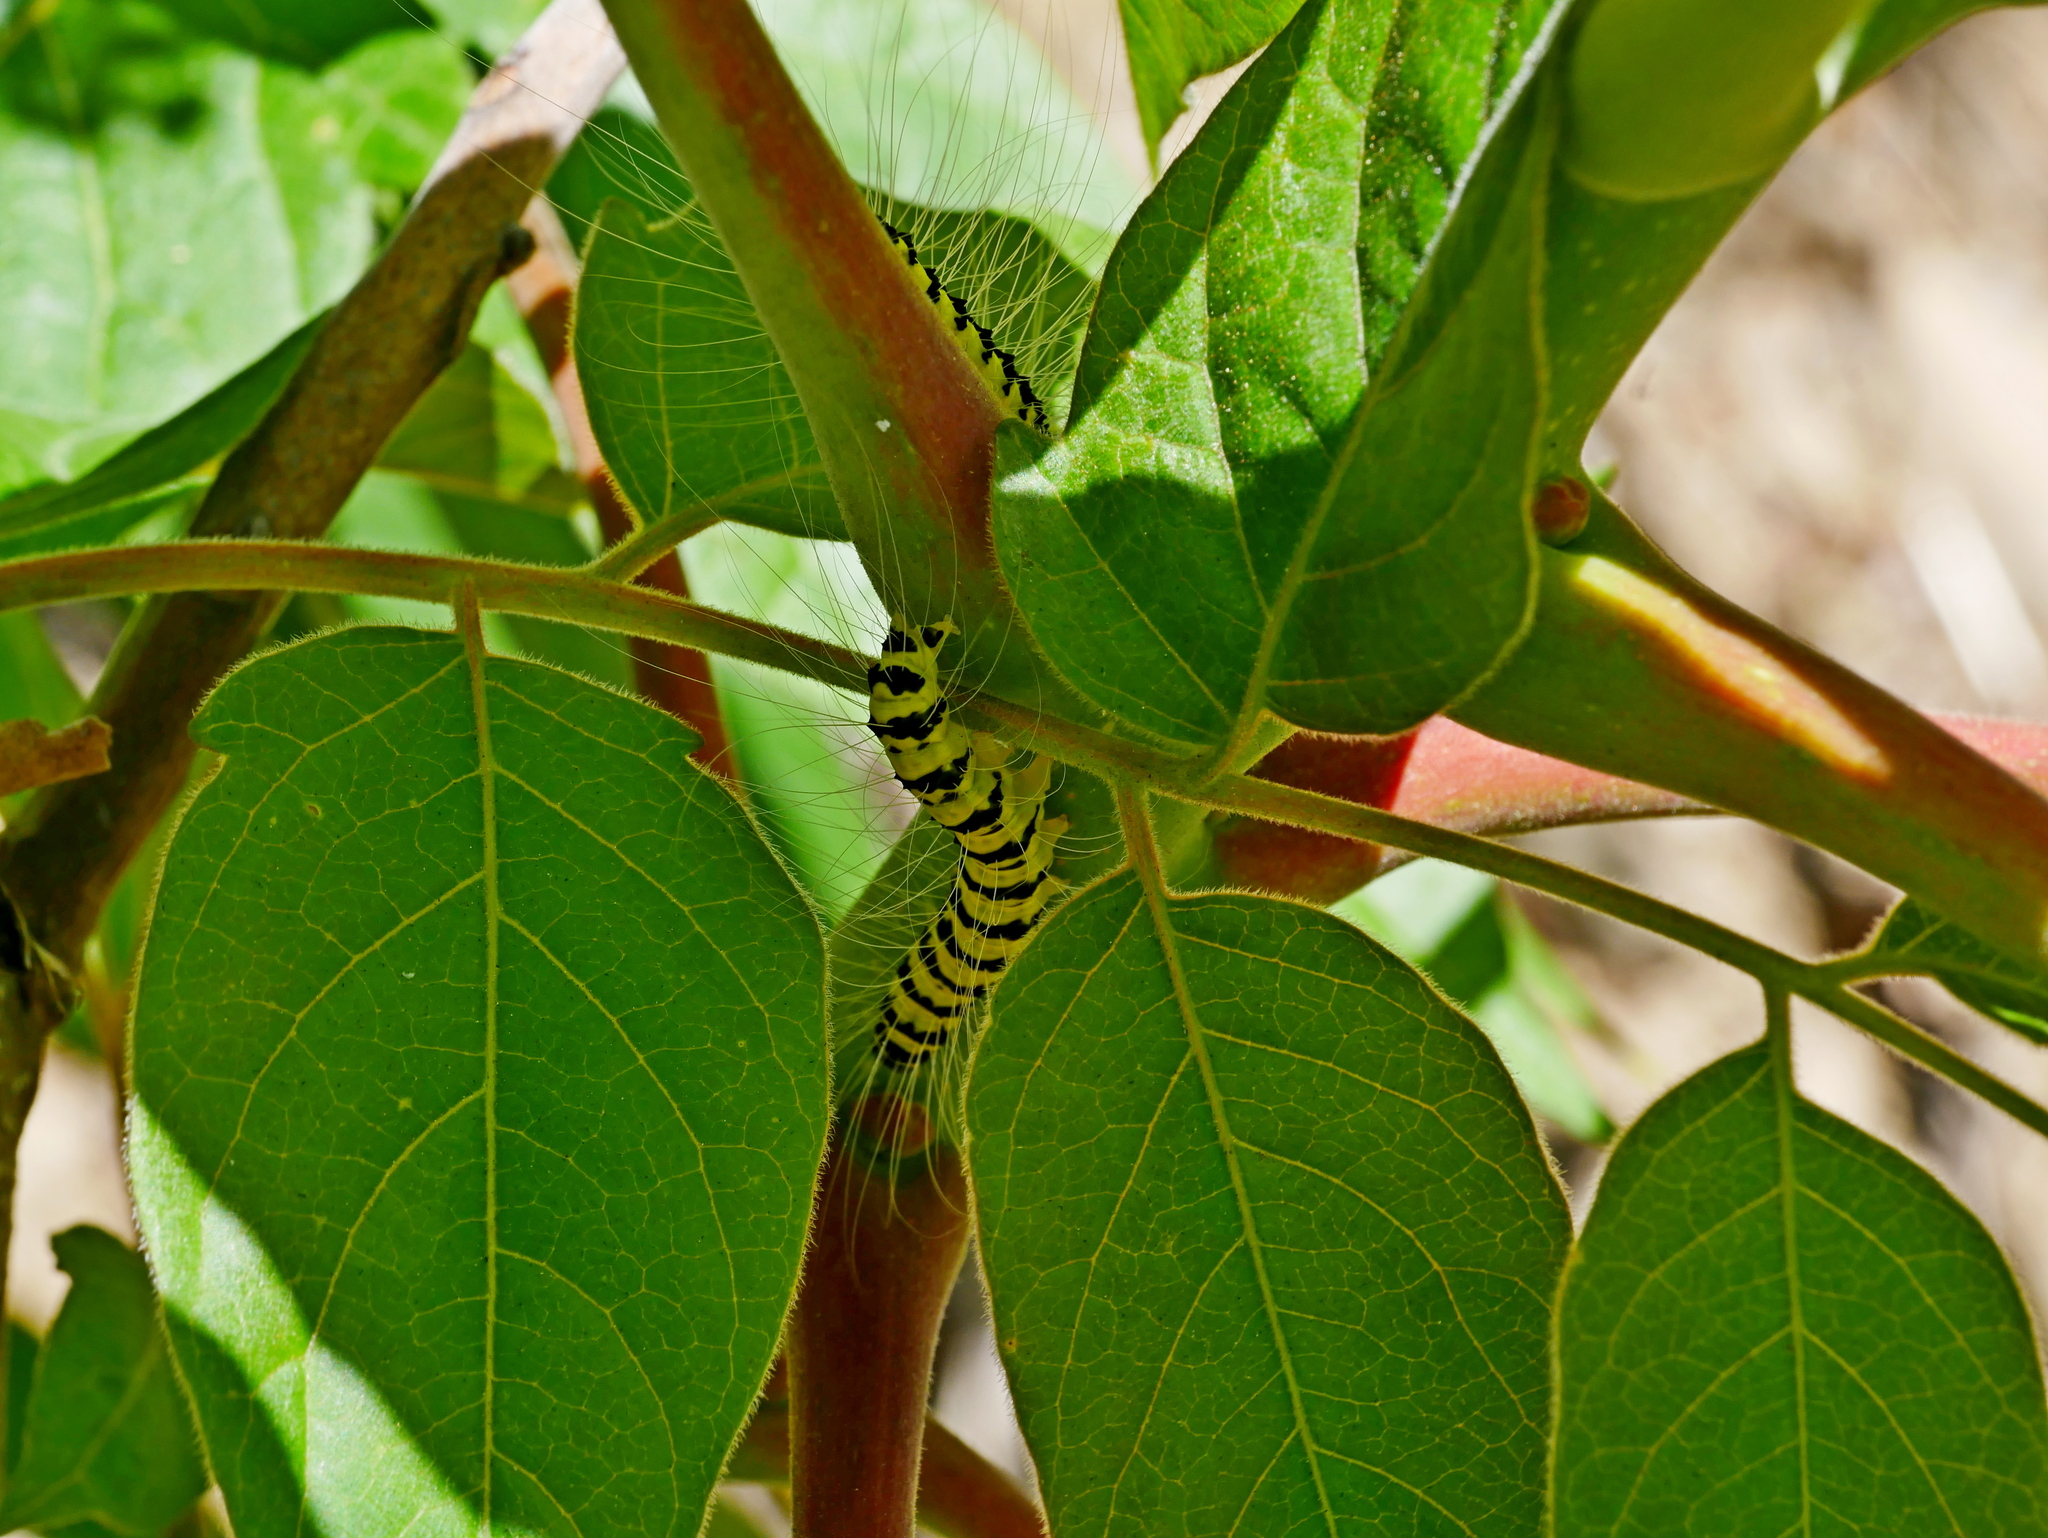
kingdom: Animalia
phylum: Arthropoda
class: Insecta
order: Lepidoptera
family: Nolidae
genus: Eligma
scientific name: Eligma narcissus
